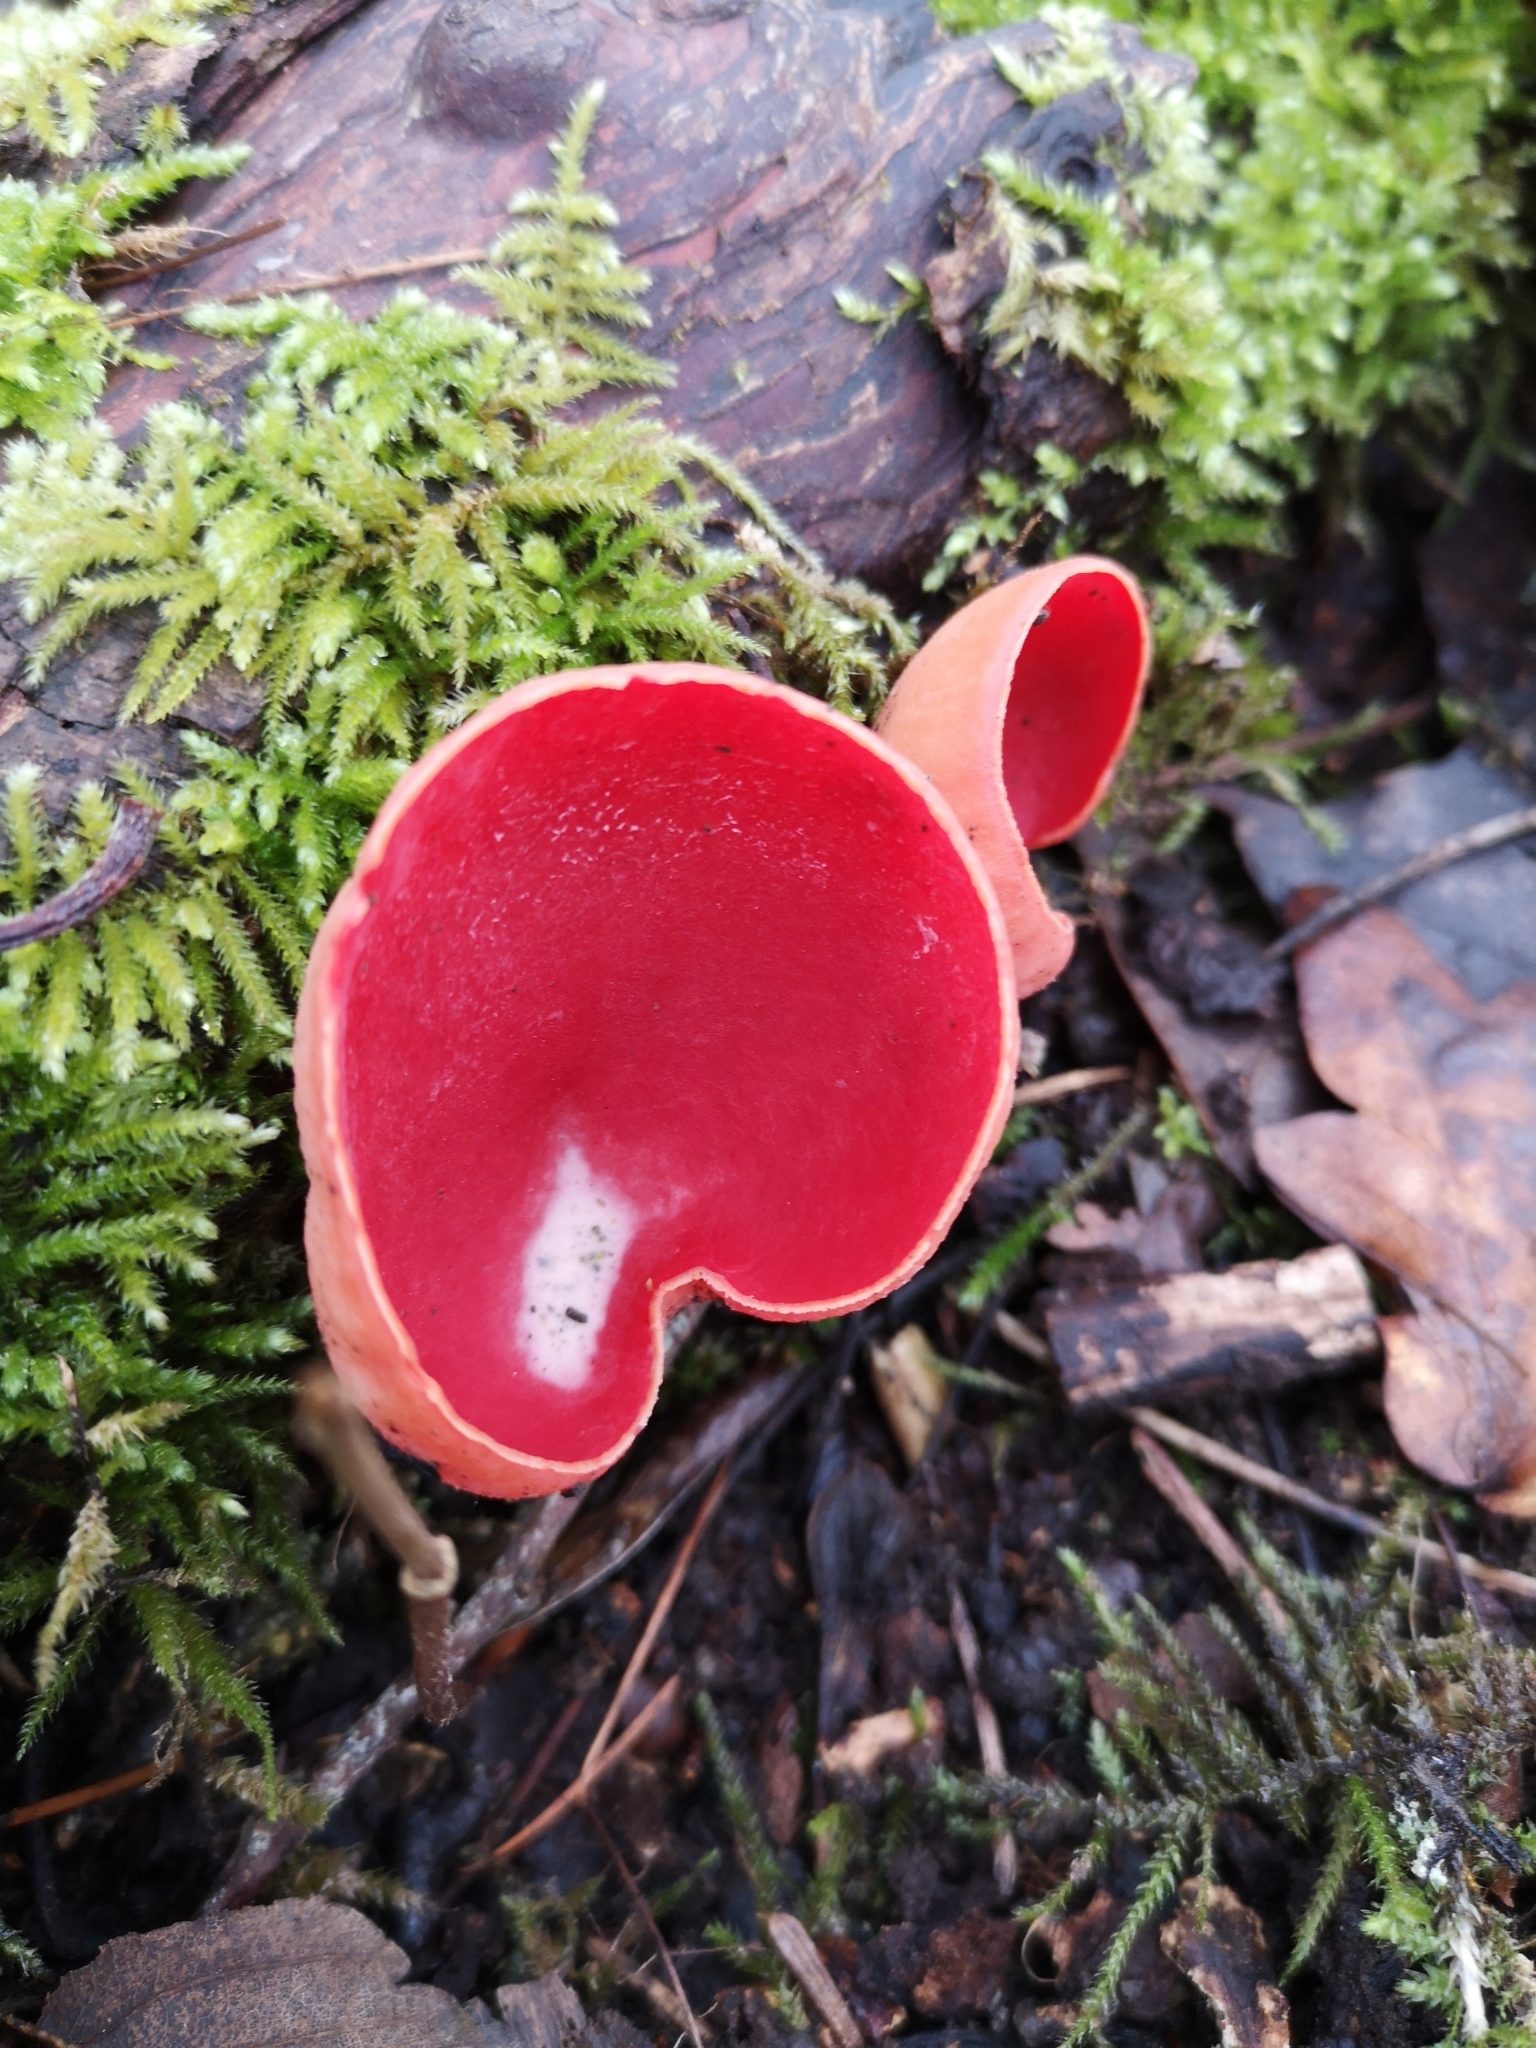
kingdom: Fungi
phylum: Ascomycota
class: Pezizomycetes
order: Pezizales
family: Sarcoscyphaceae
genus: Sarcoscypha
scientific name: Sarcoscypha
